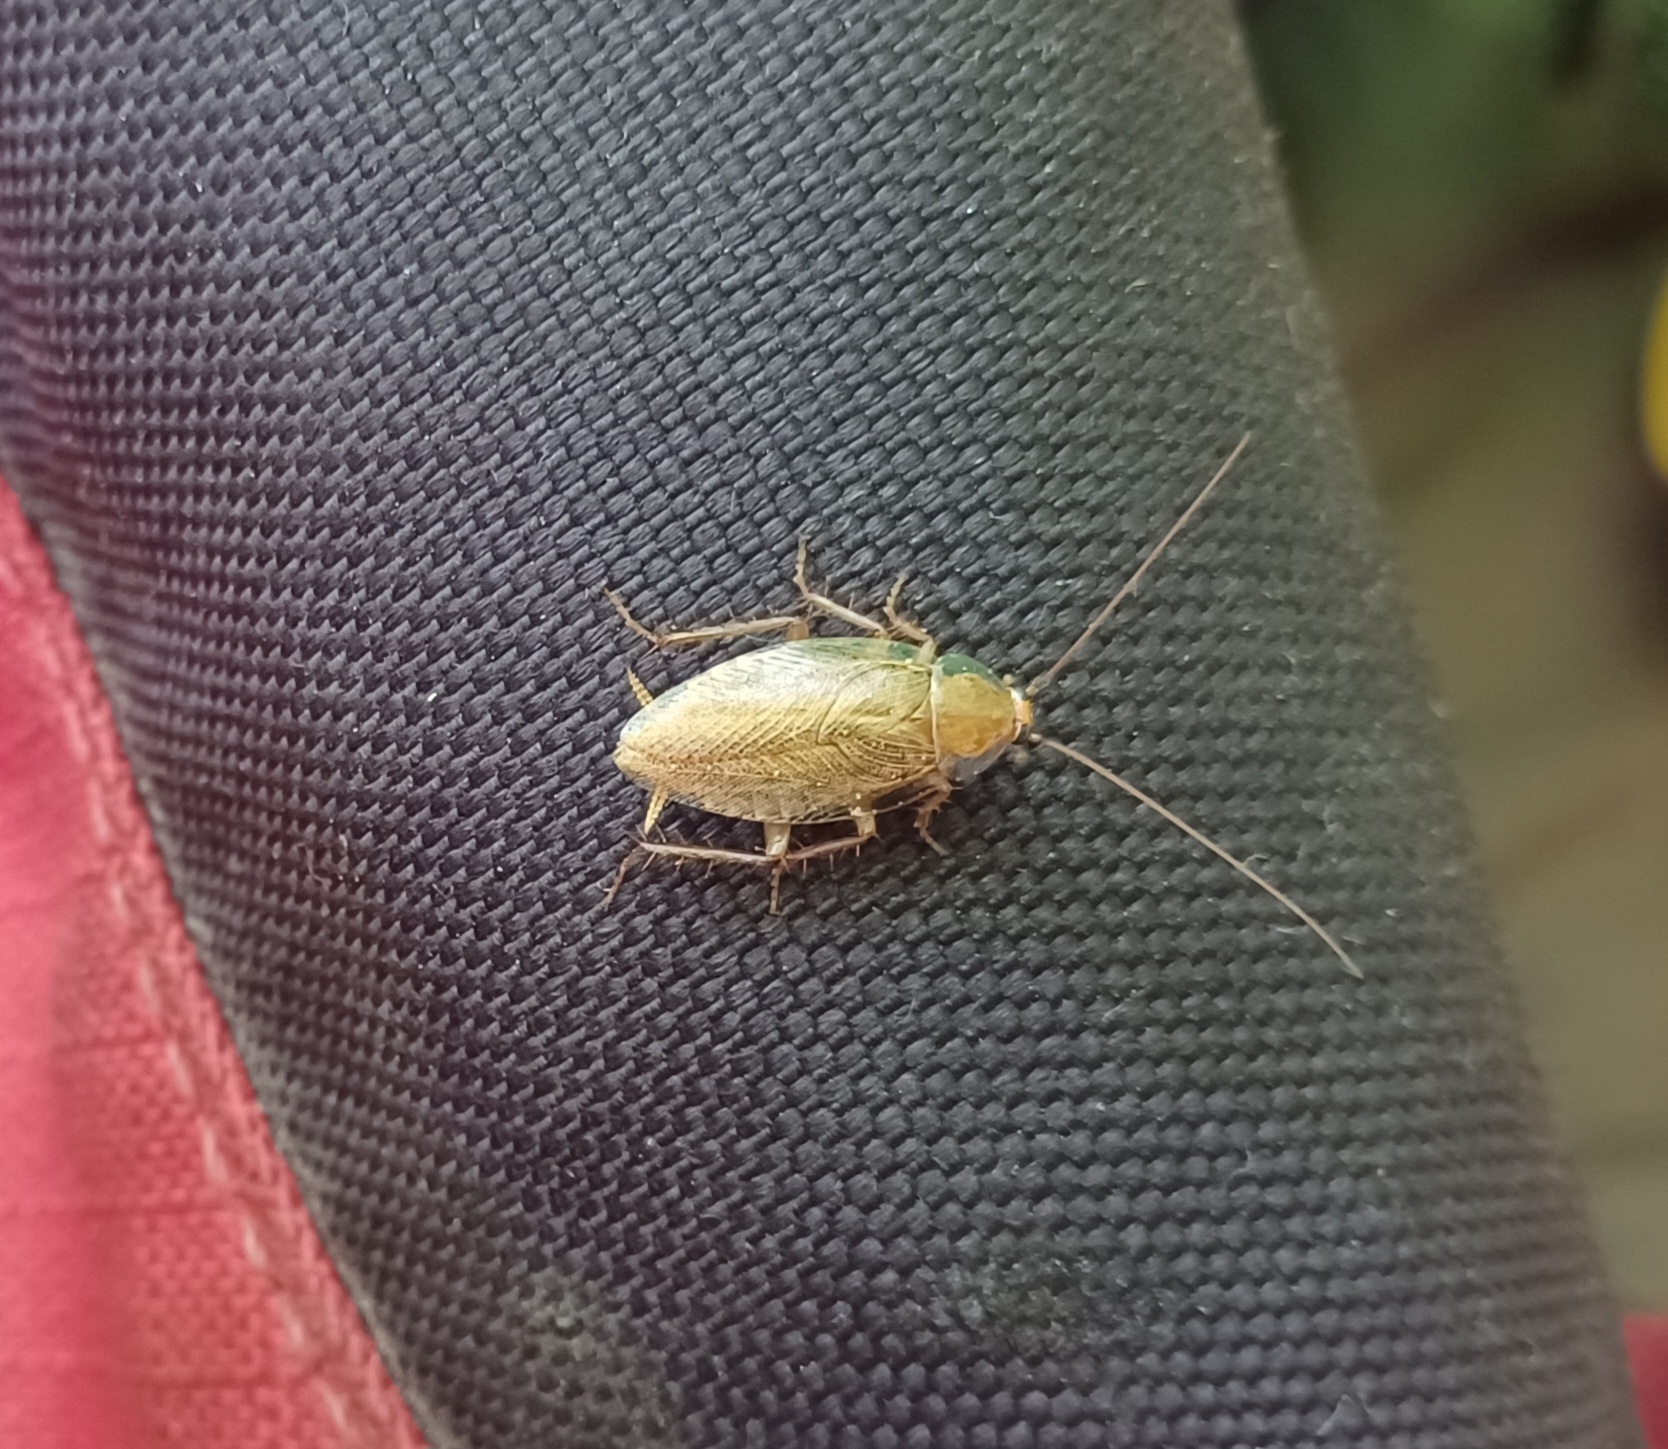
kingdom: Animalia
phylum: Arthropoda
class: Insecta
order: Blattodea
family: Ectobiidae
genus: Ectobius
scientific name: Ectobius vittiventris
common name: Garden cockroach
